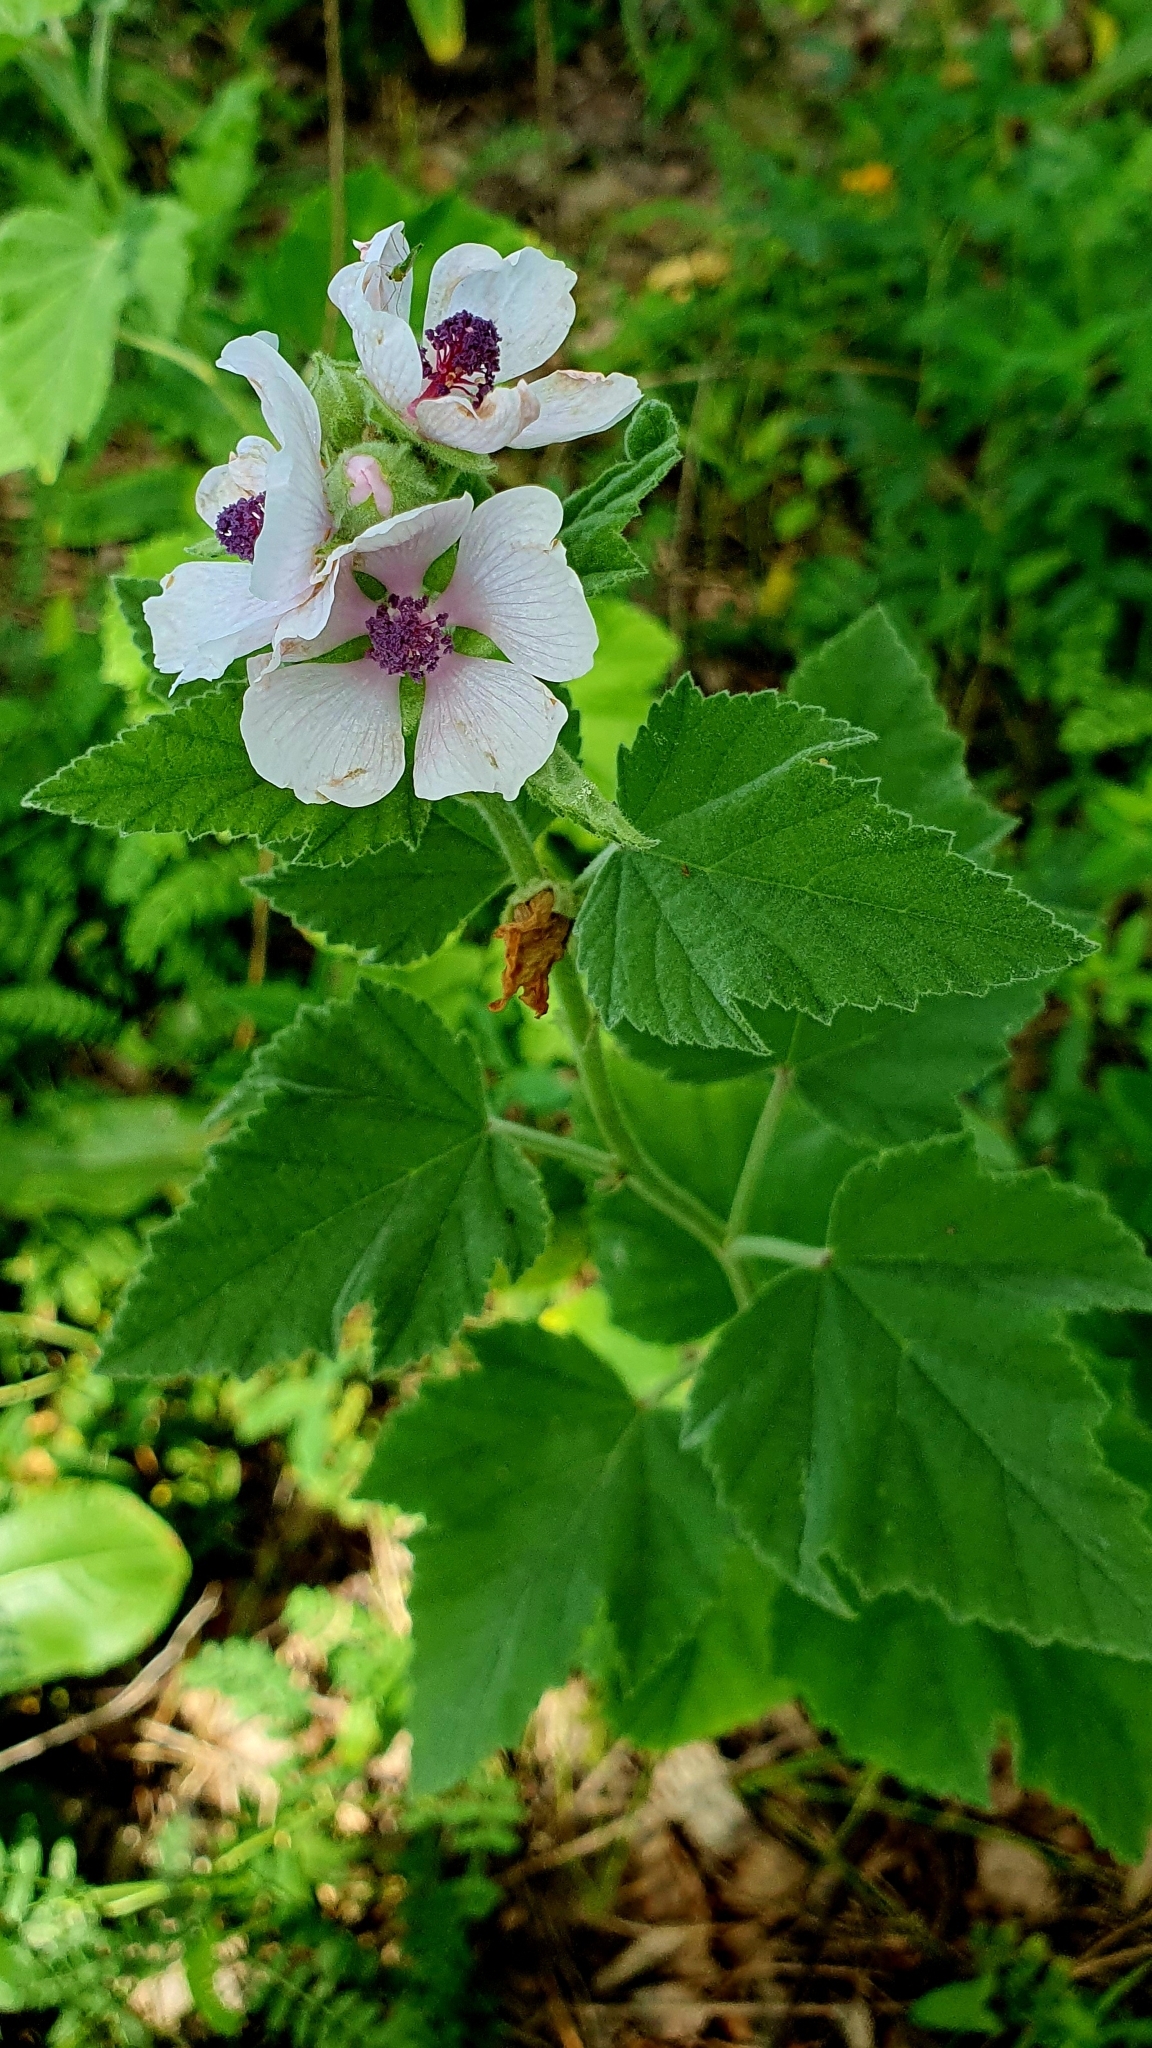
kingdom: Plantae
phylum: Tracheophyta
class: Magnoliopsida
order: Malvales
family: Malvaceae
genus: Althaea
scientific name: Althaea officinalis
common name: Marsh-mallow
